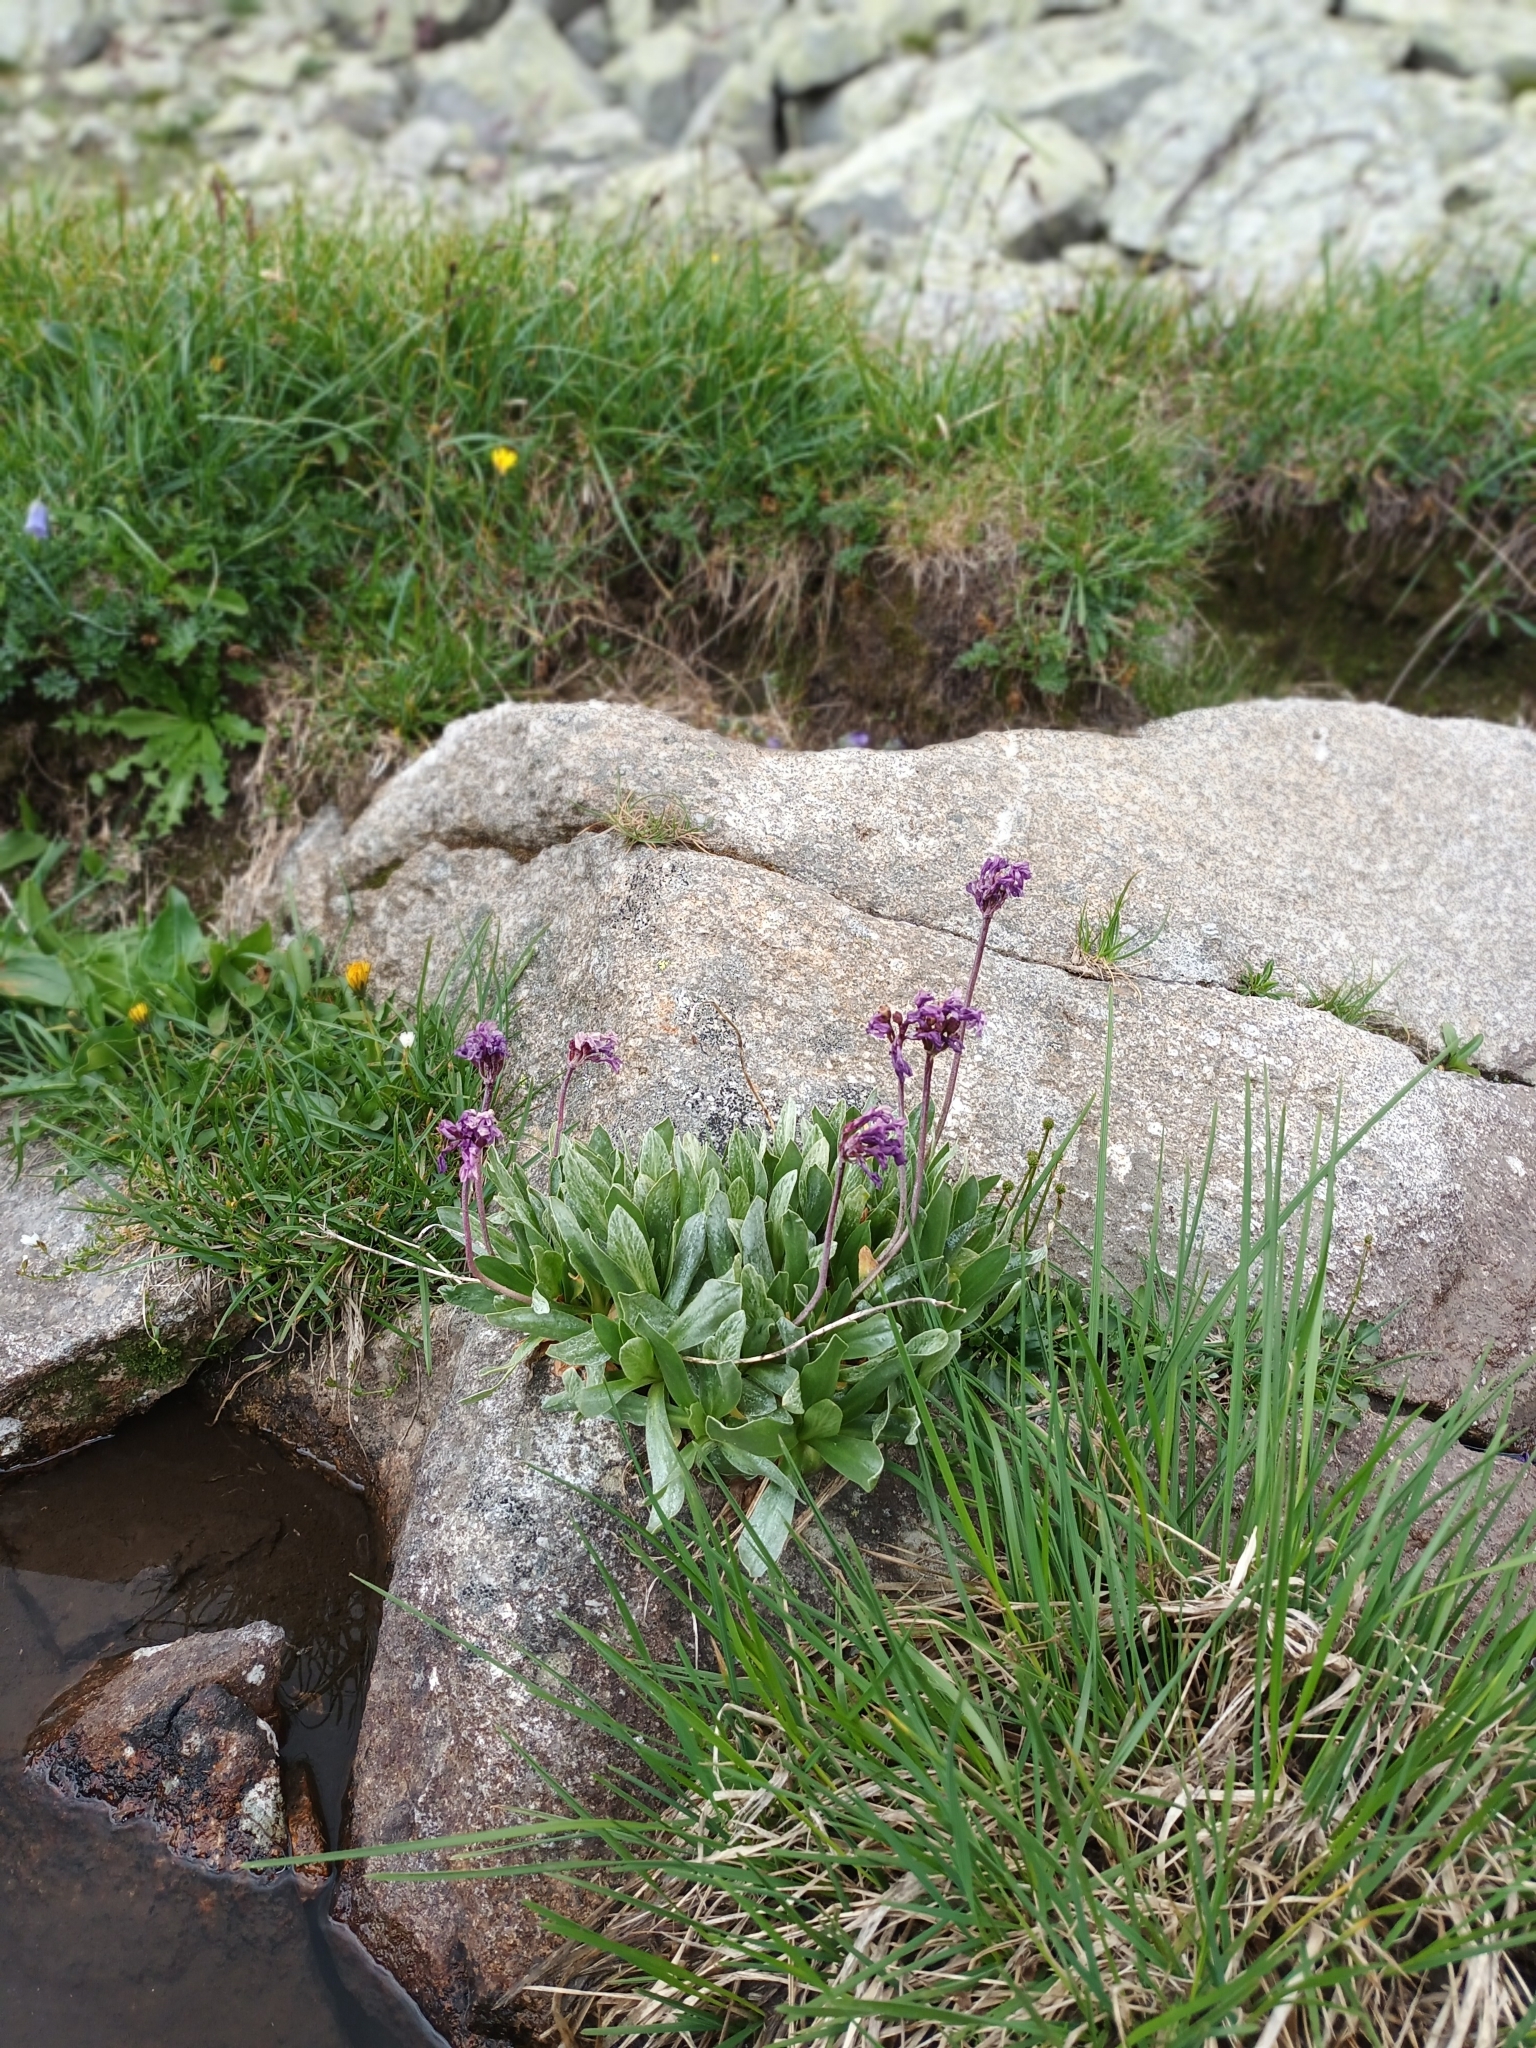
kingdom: Plantae
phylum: Tracheophyta
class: Magnoliopsida
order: Ericales
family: Primulaceae
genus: Primula
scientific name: Primula deorum
